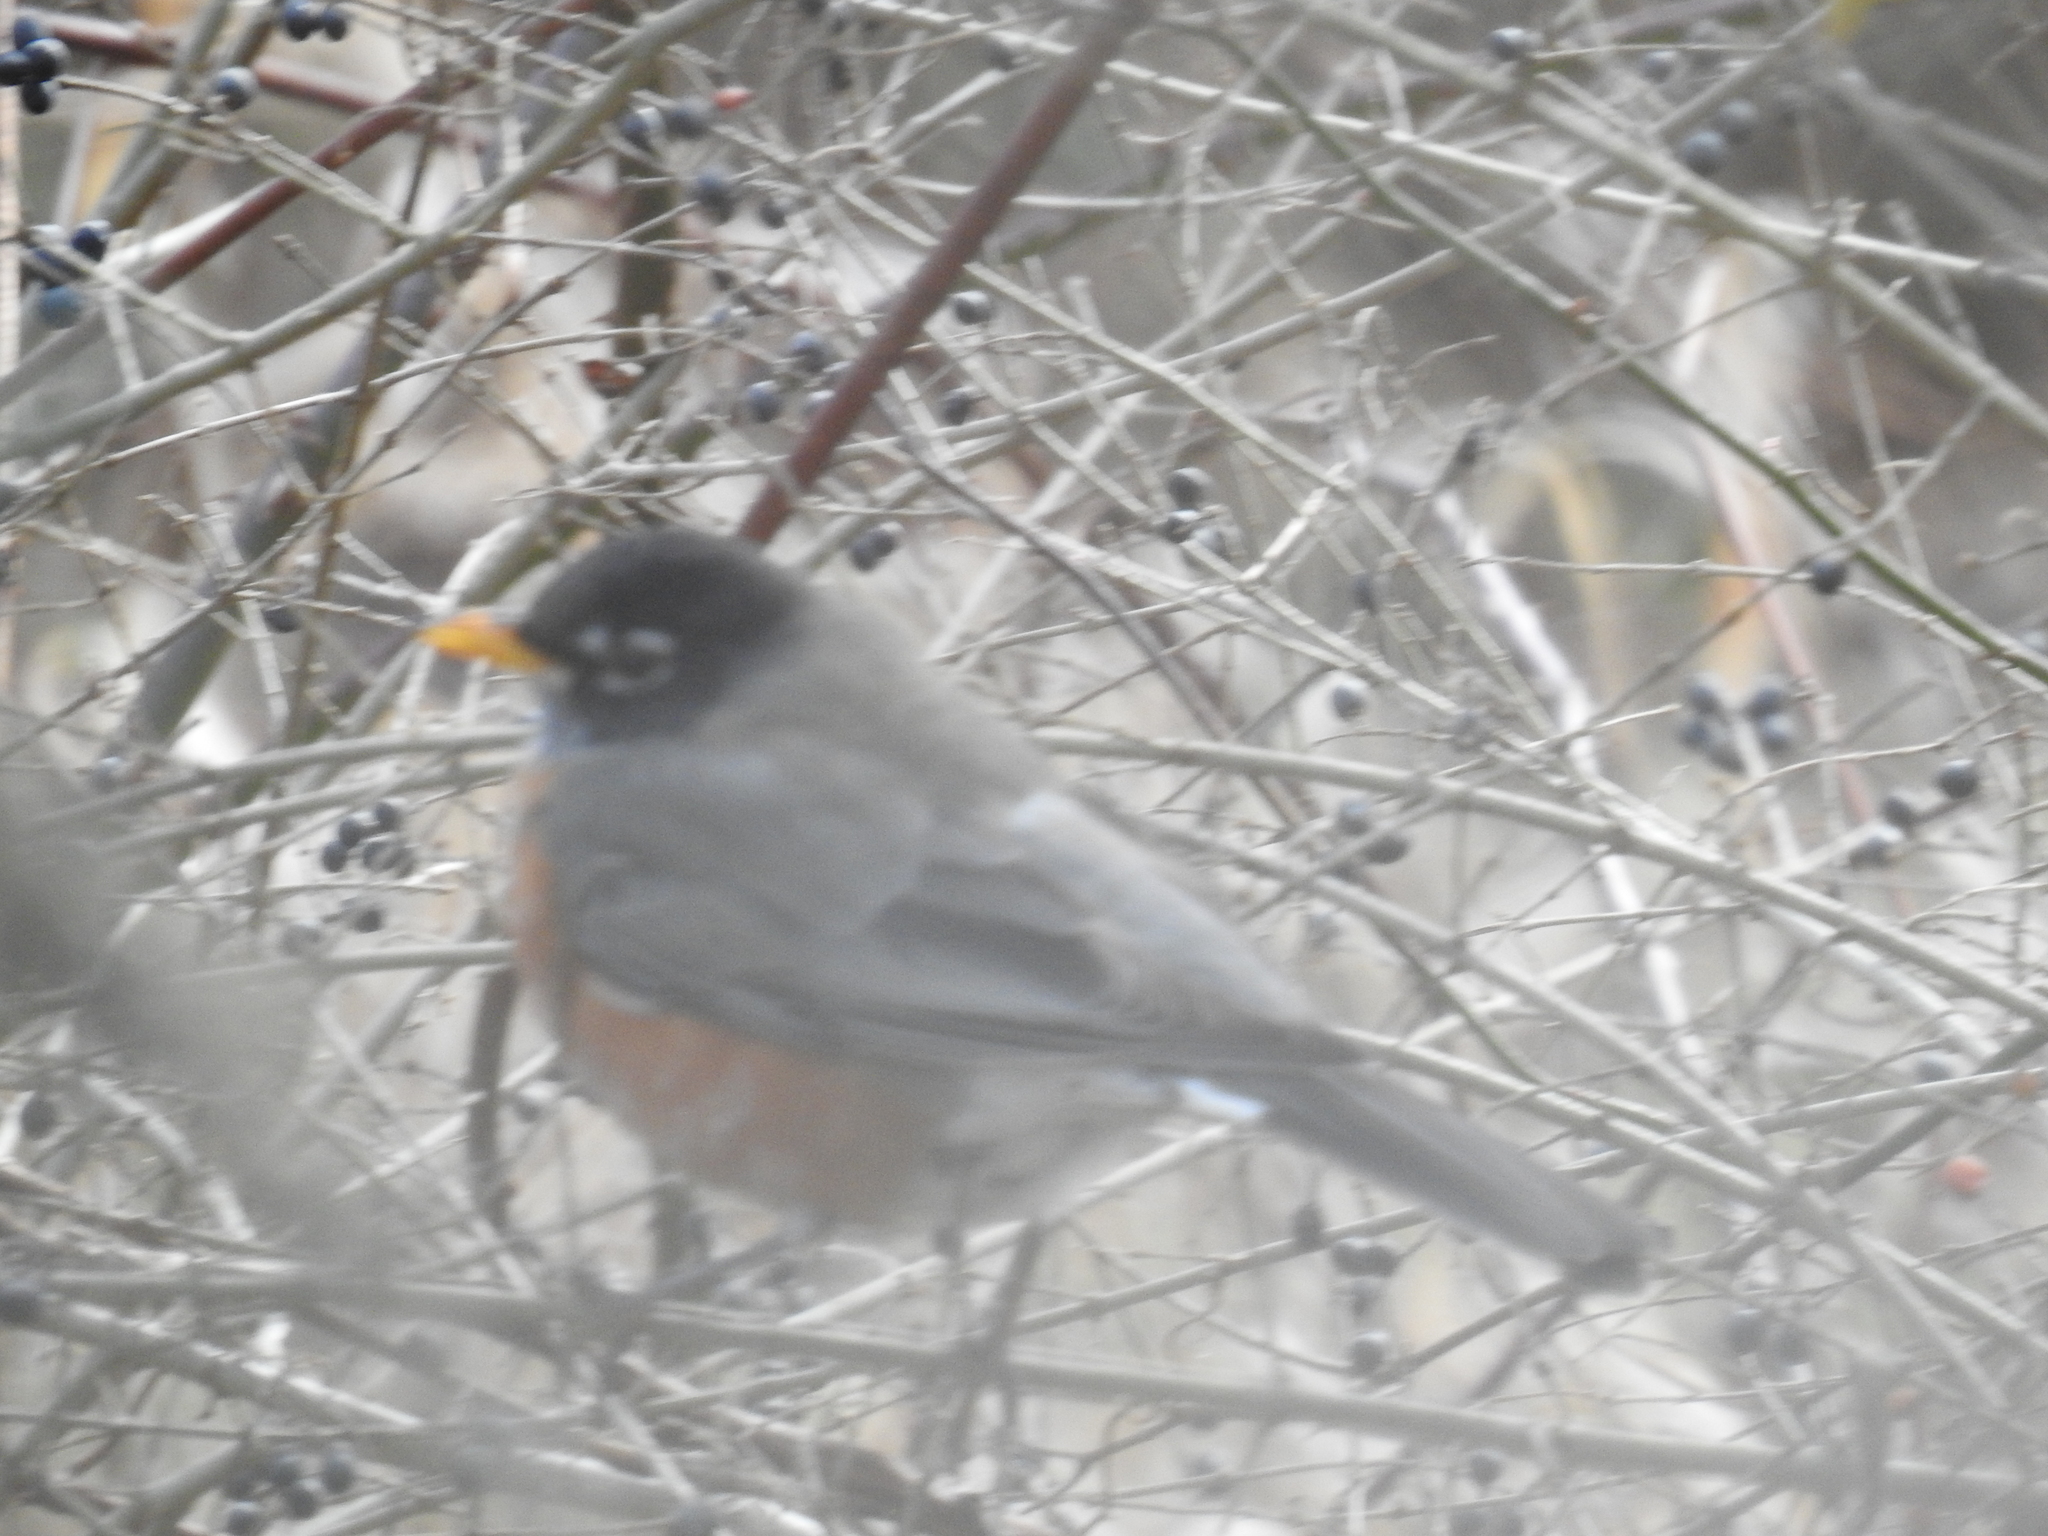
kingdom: Animalia
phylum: Chordata
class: Aves
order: Passeriformes
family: Turdidae
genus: Turdus
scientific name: Turdus migratorius
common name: American robin
